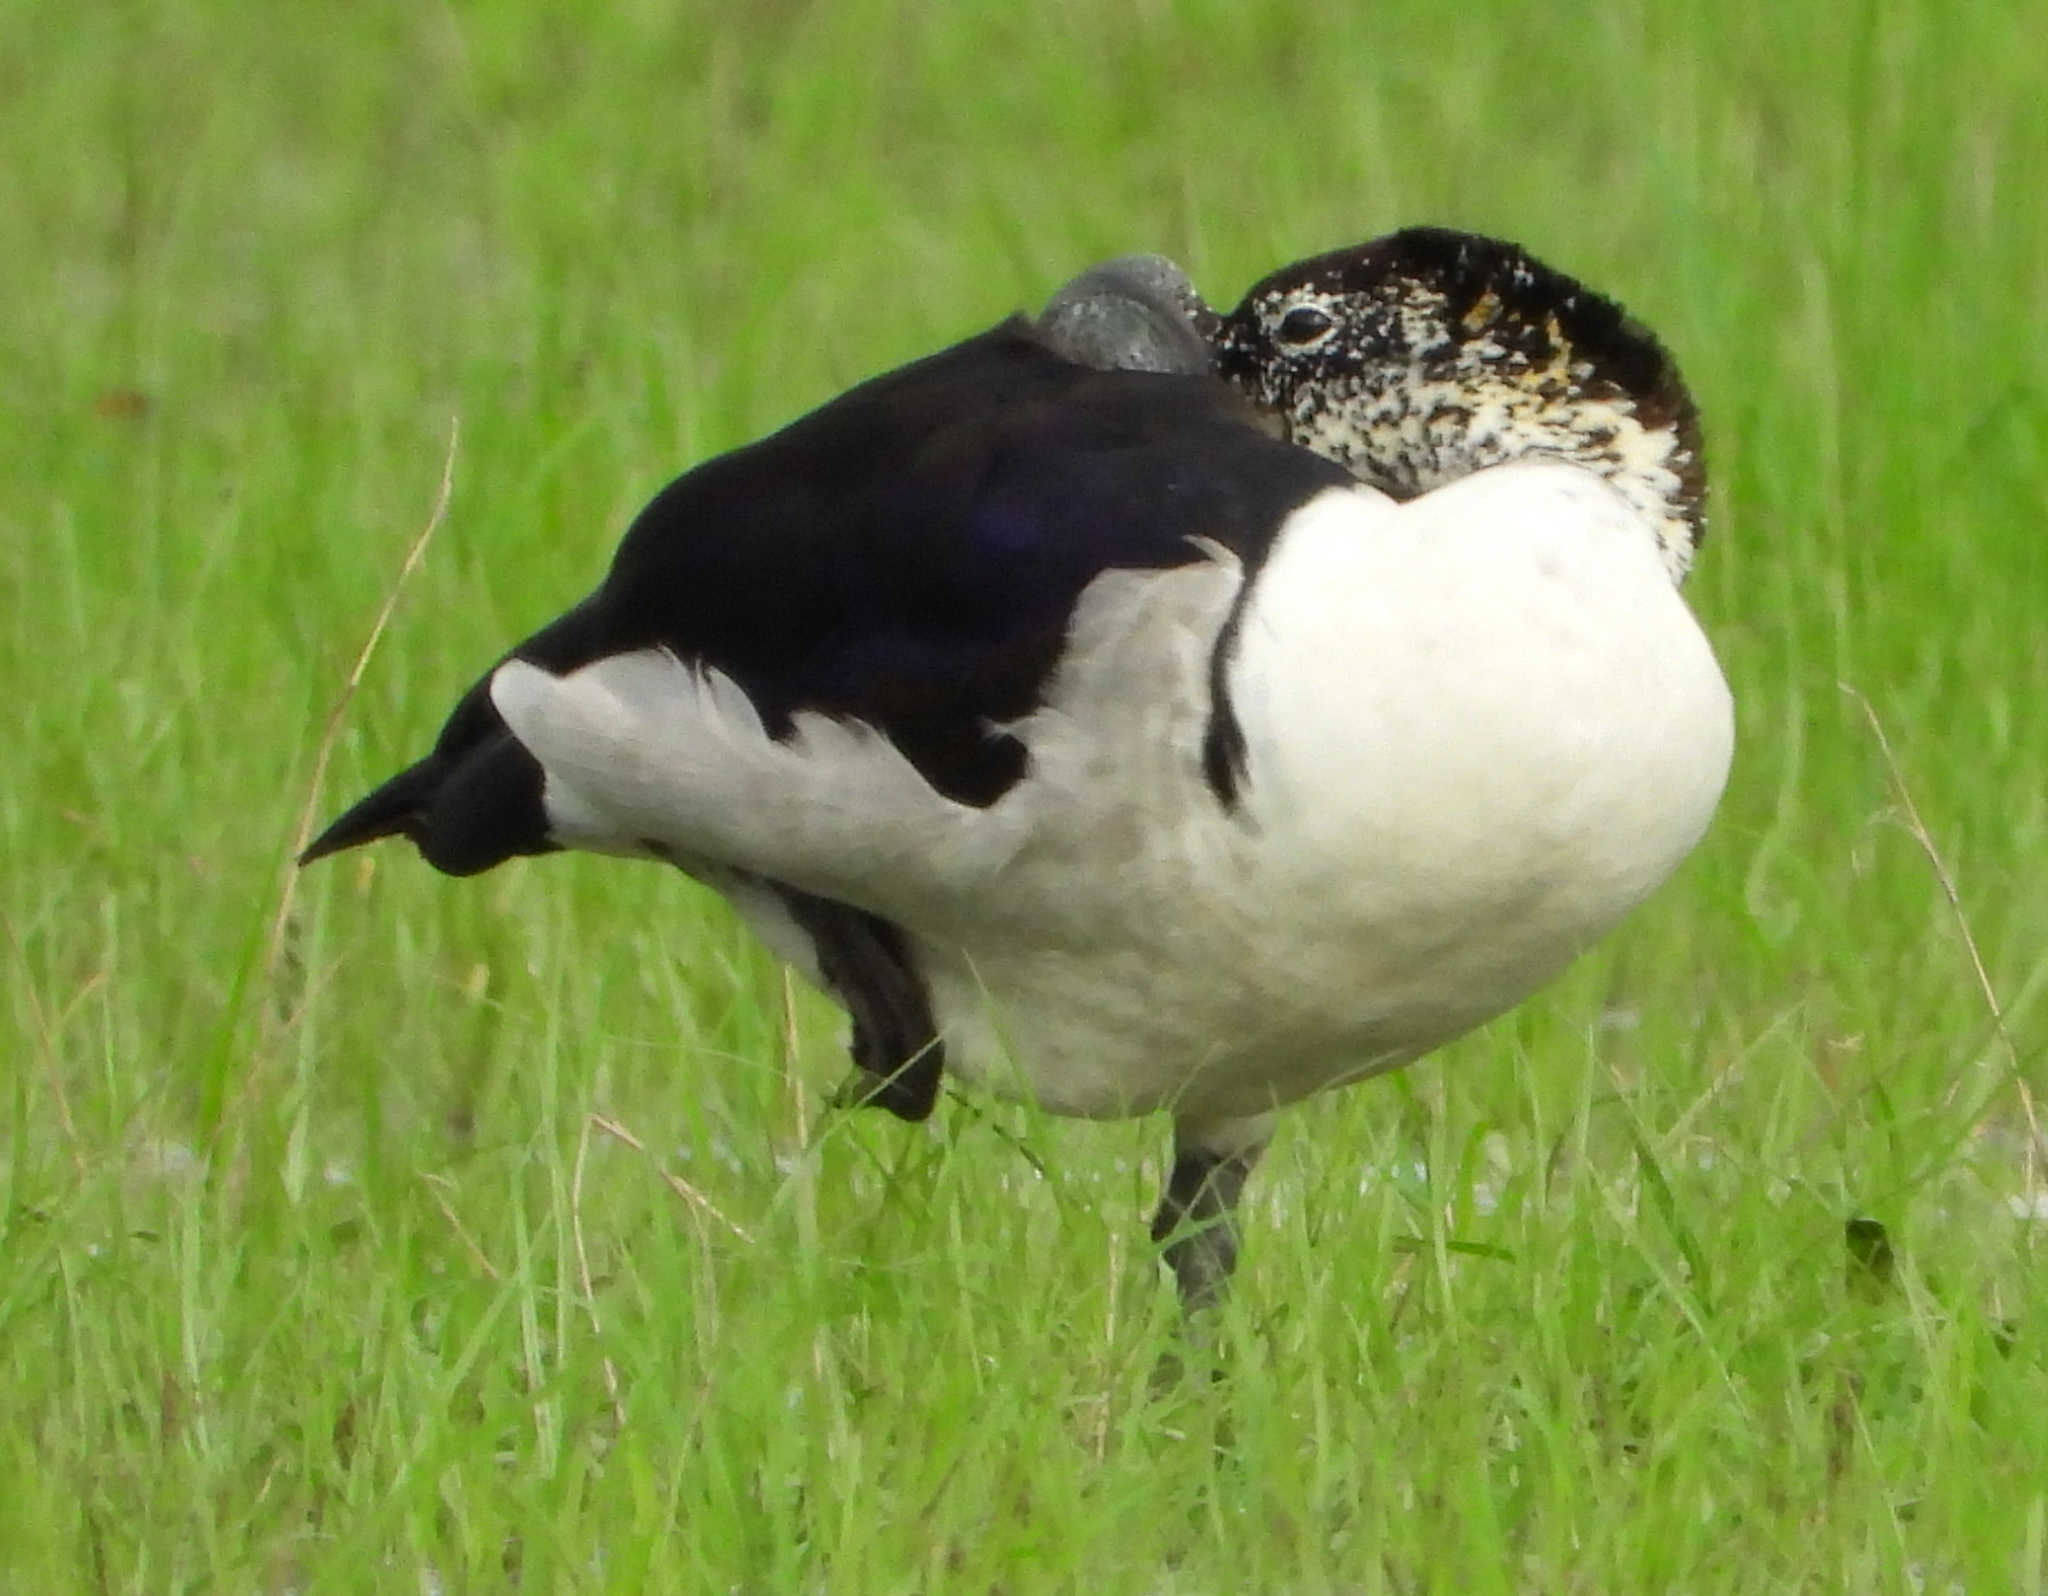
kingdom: Animalia
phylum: Chordata
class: Aves
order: Anseriformes
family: Anatidae
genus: Sarkidiornis
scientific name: Sarkidiornis melanotos
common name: Comb duck
